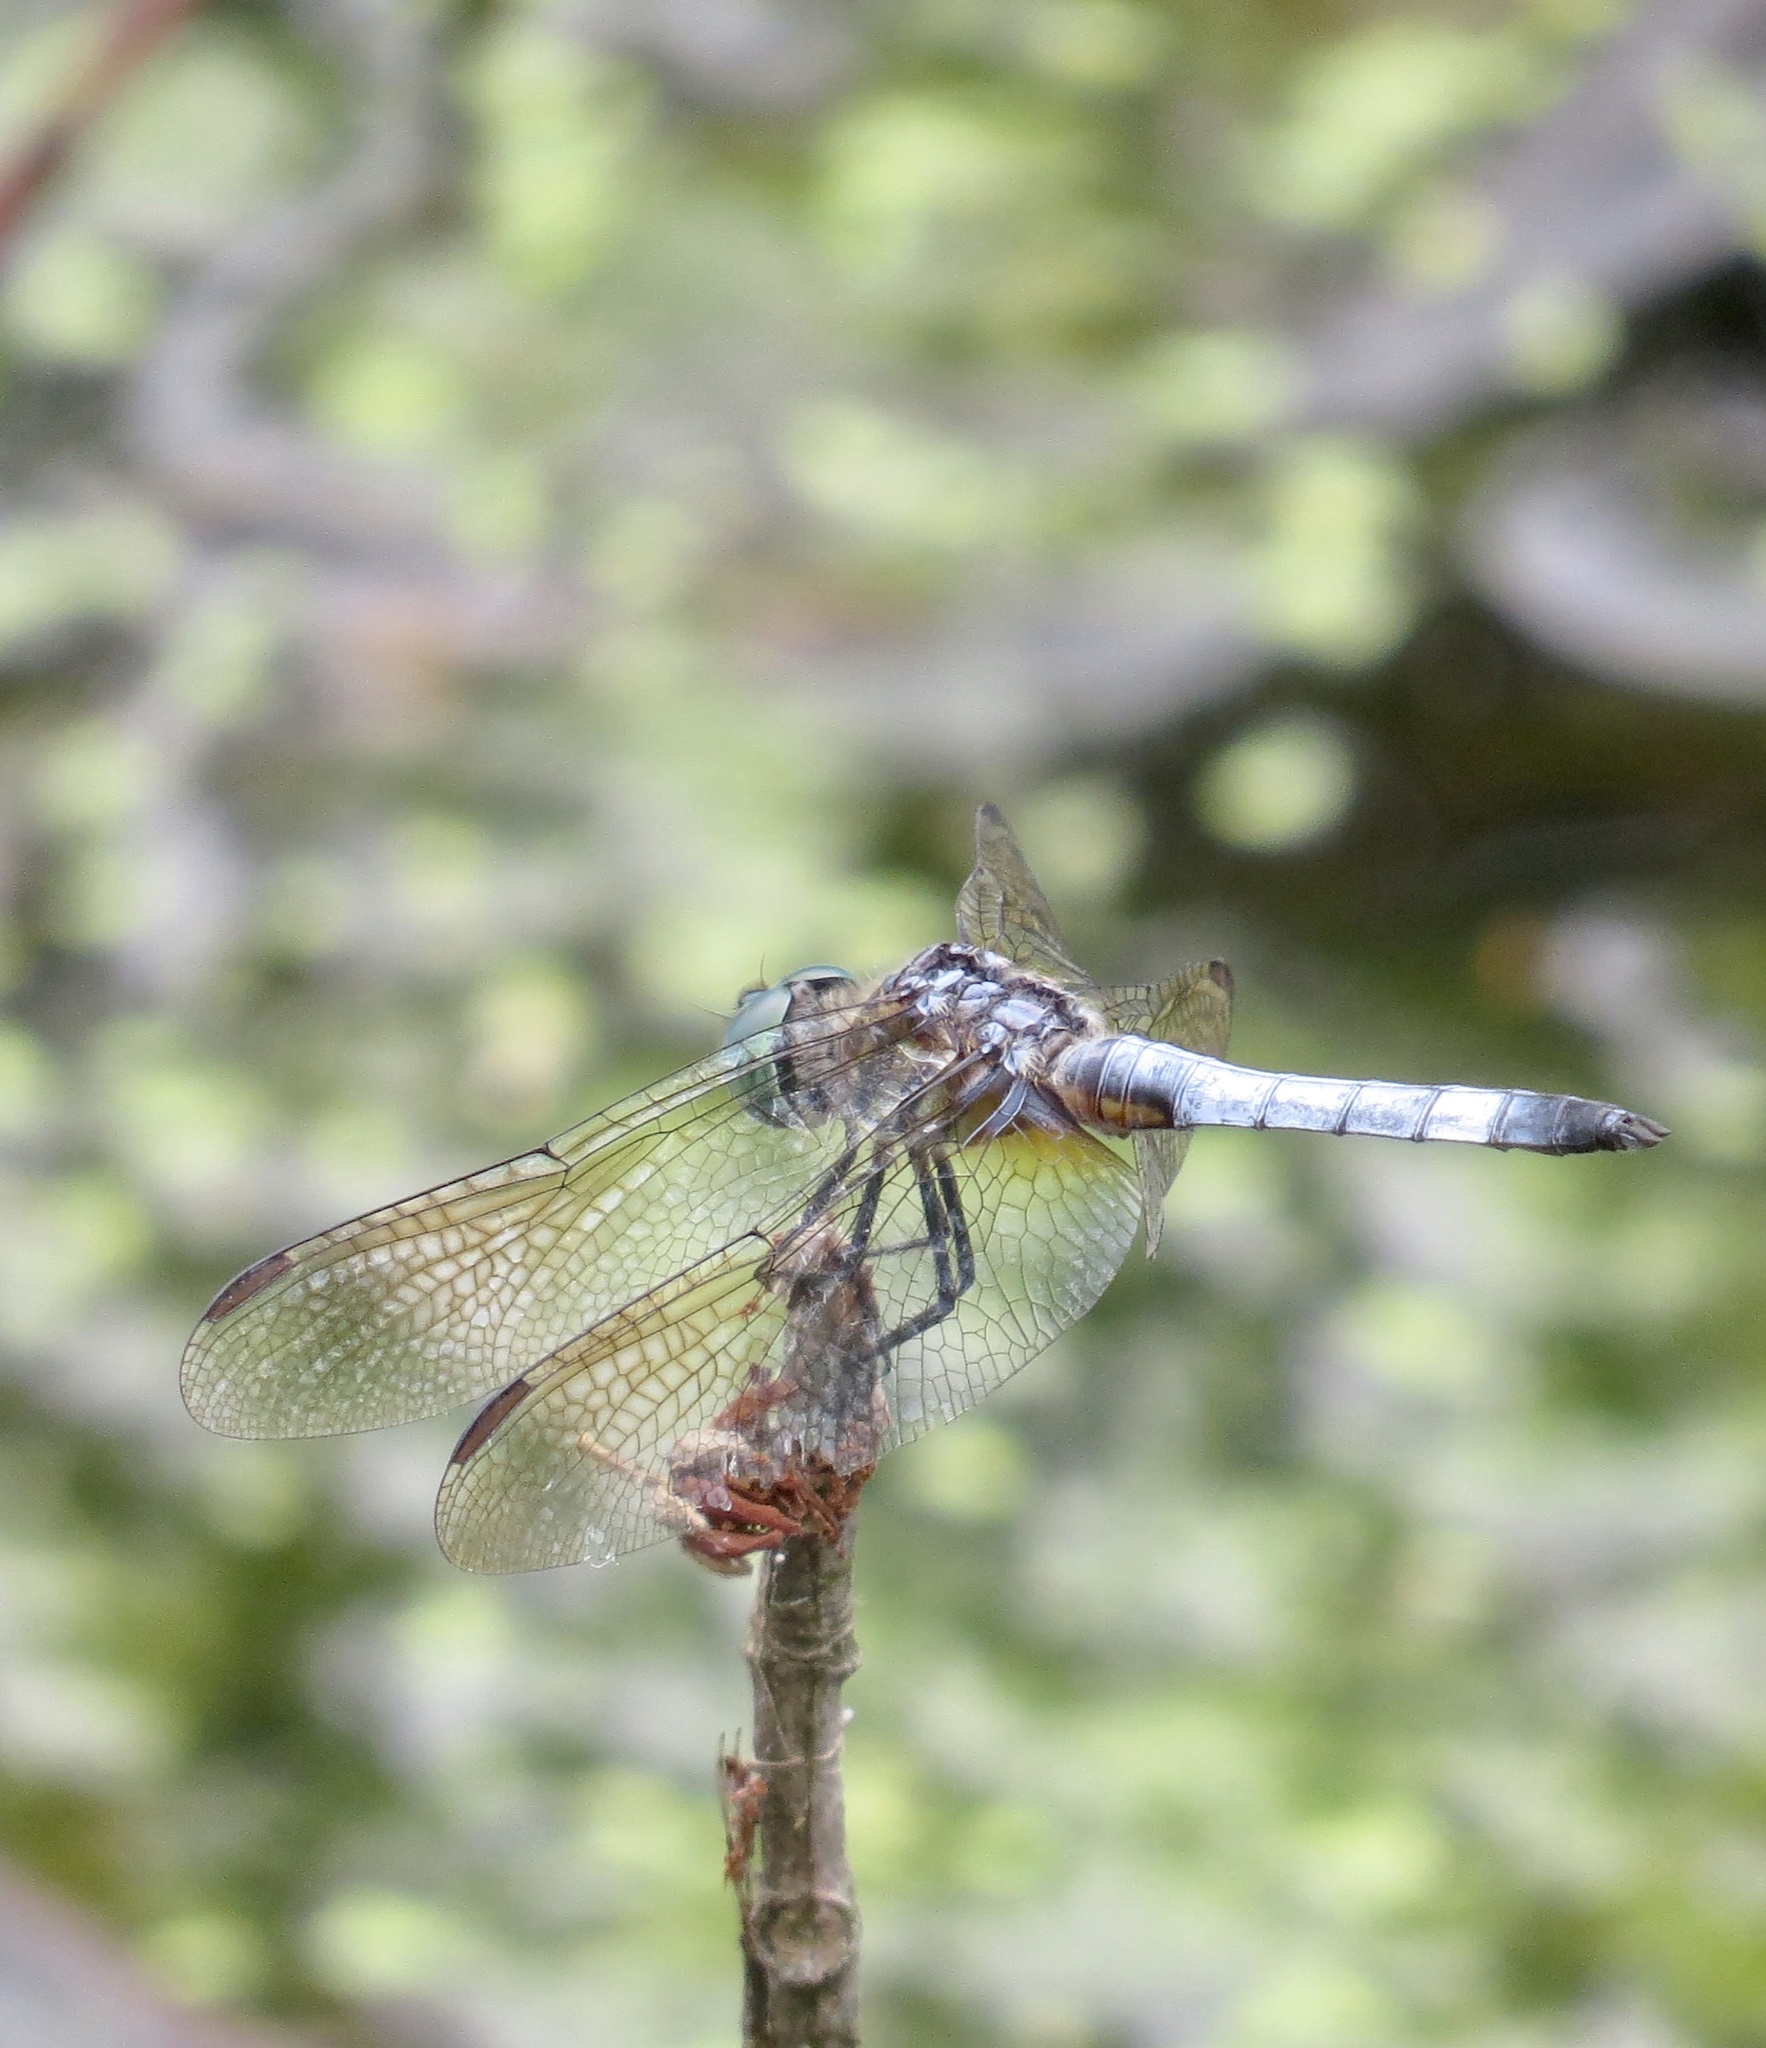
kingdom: Animalia
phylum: Arthropoda
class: Insecta
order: Odonata
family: Libellulidae
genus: Pachydiplax
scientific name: Pachydiplax longipennis
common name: Blue dasher
